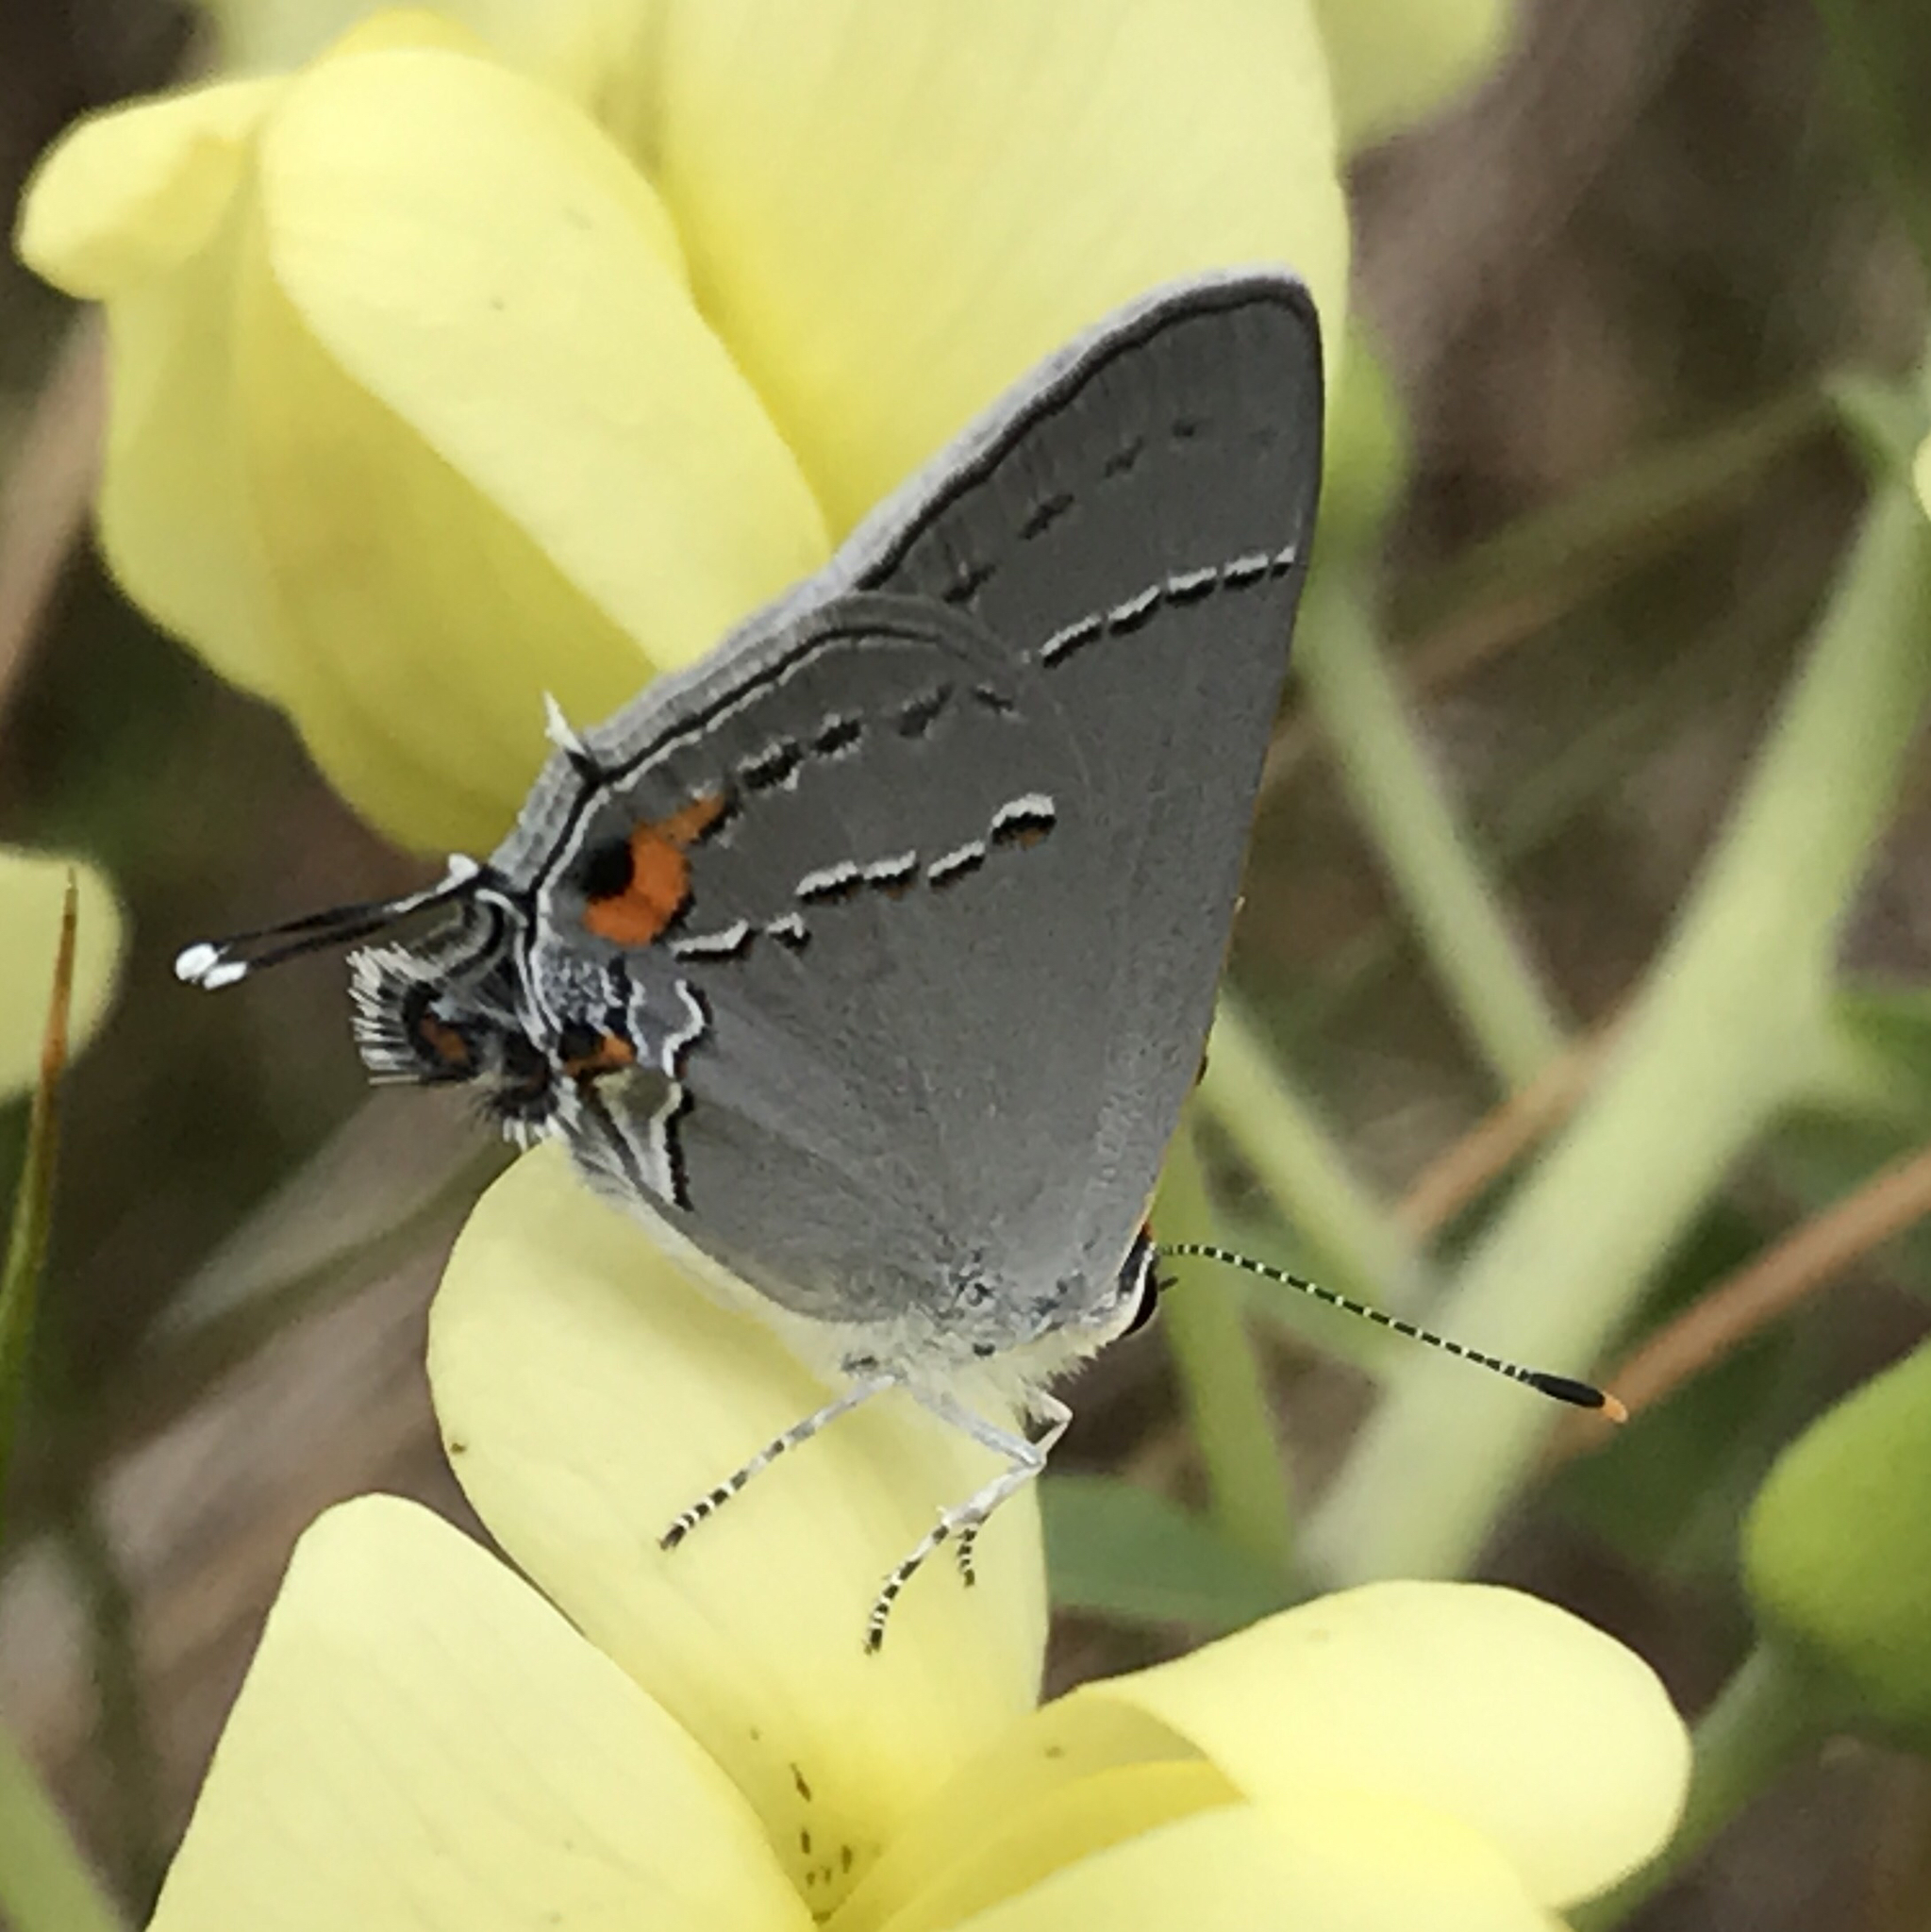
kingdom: Animalia
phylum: Arthropoda
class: Insecta
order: Lepidoptera
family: Lycaenidae
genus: Strymon
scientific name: Strymon melinus
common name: Gray hairstreak
